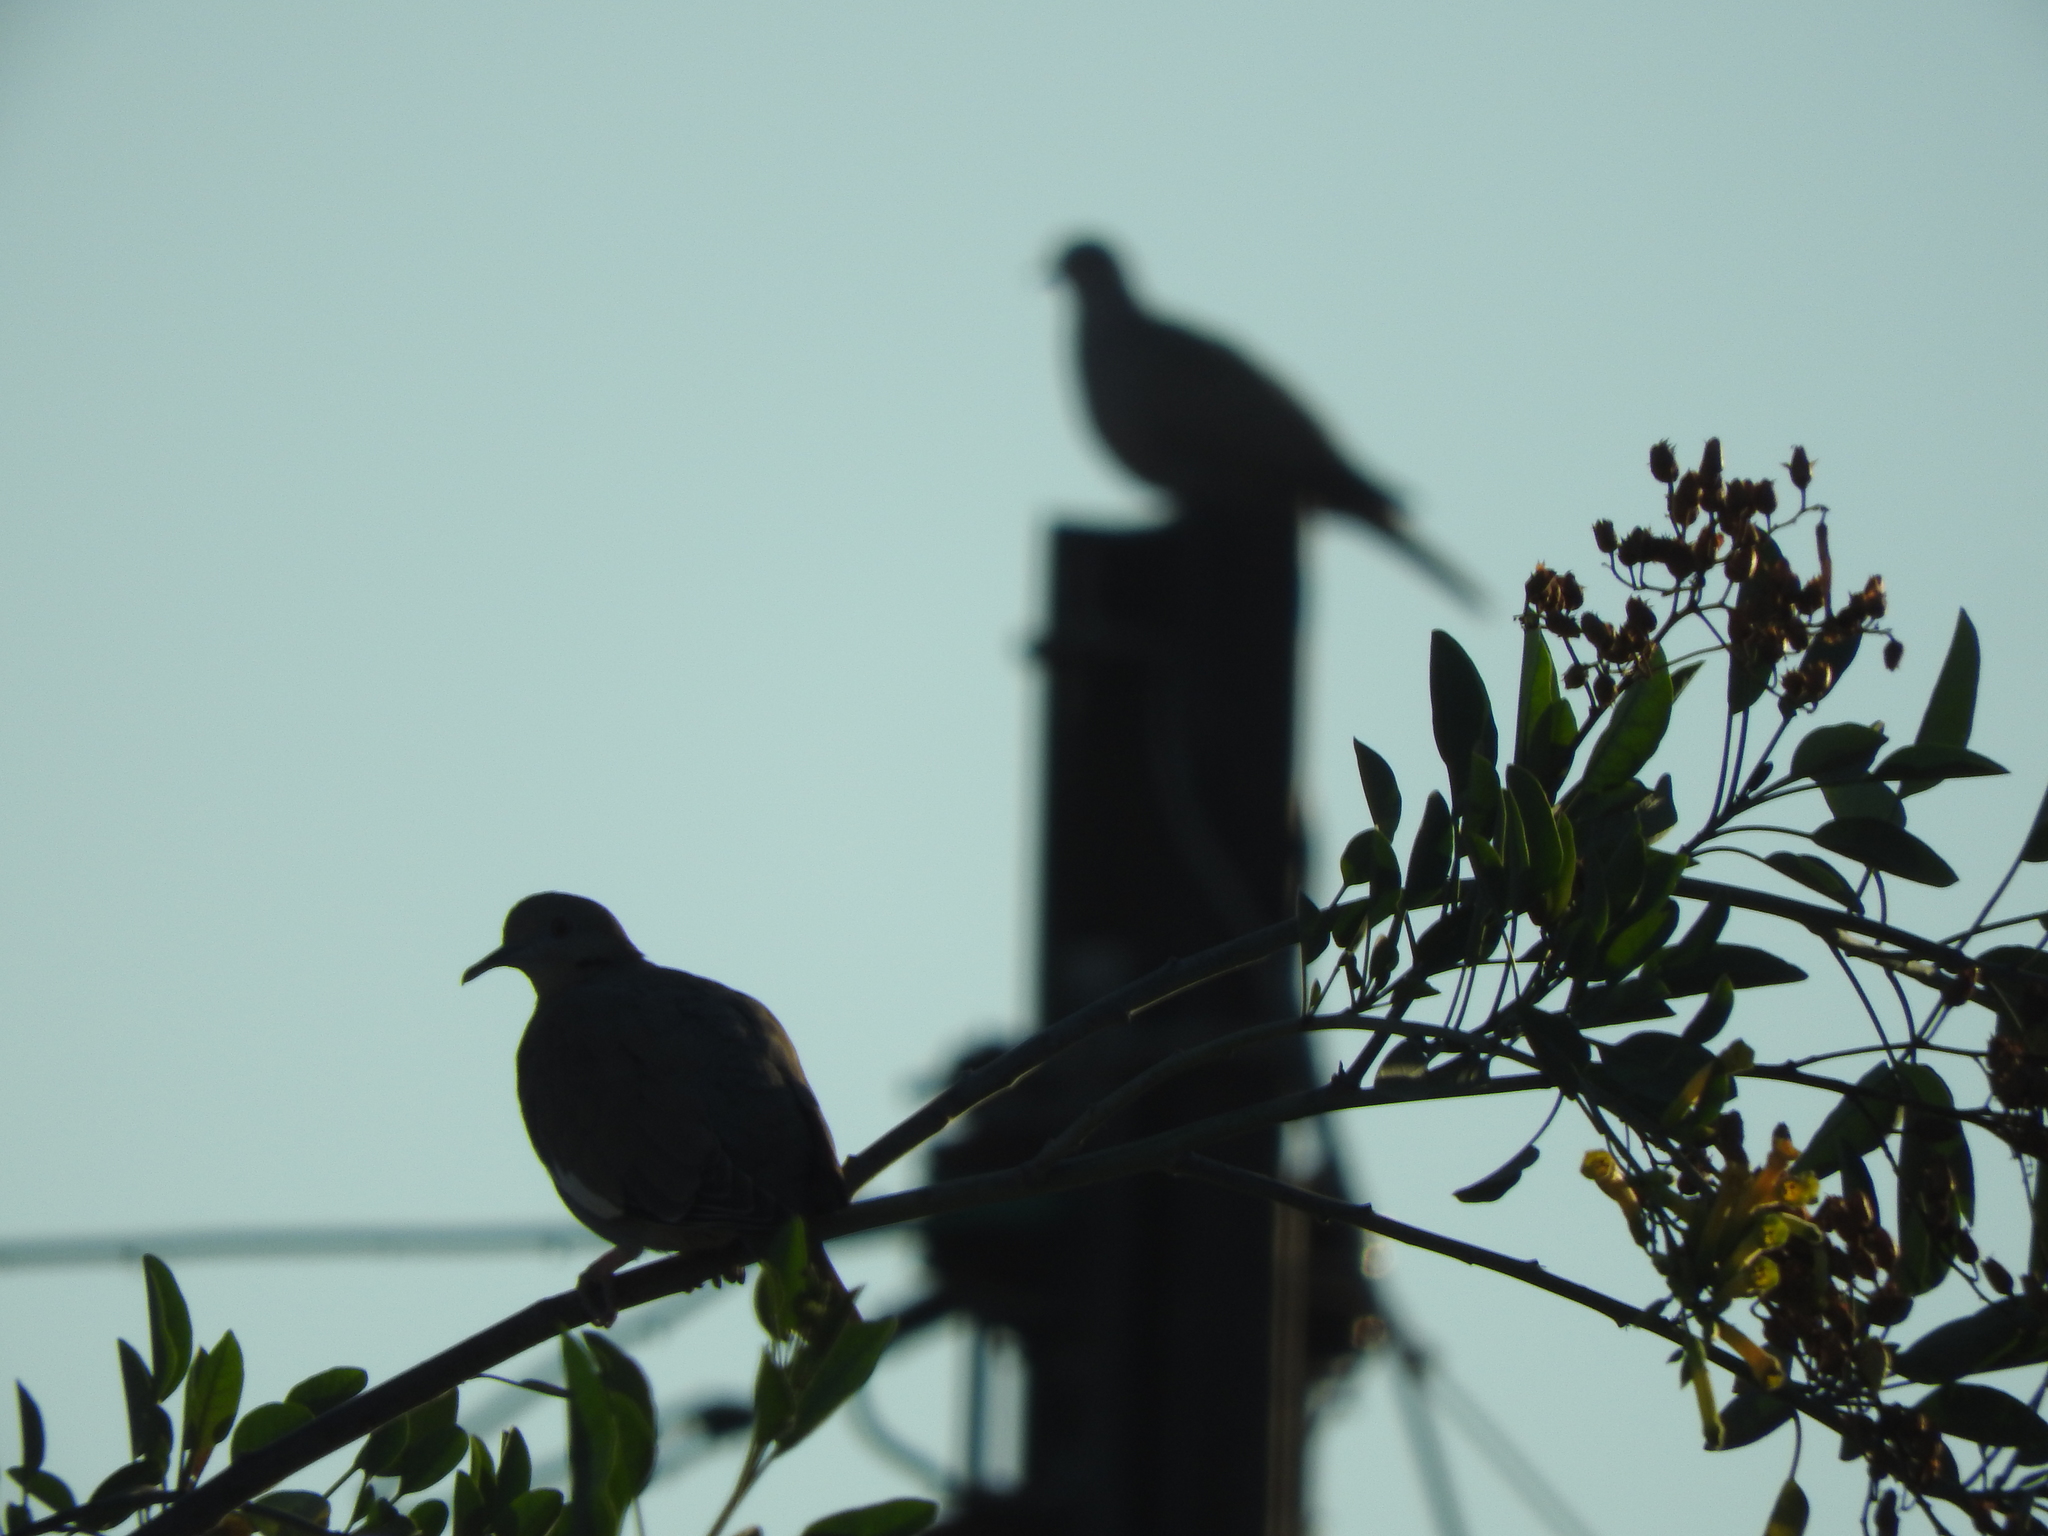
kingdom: Animalia
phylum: Chordata
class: Aves
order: Columbiformes
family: Columbidae
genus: Zenaida
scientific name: Zenaida asiatica
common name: White-winged dove
